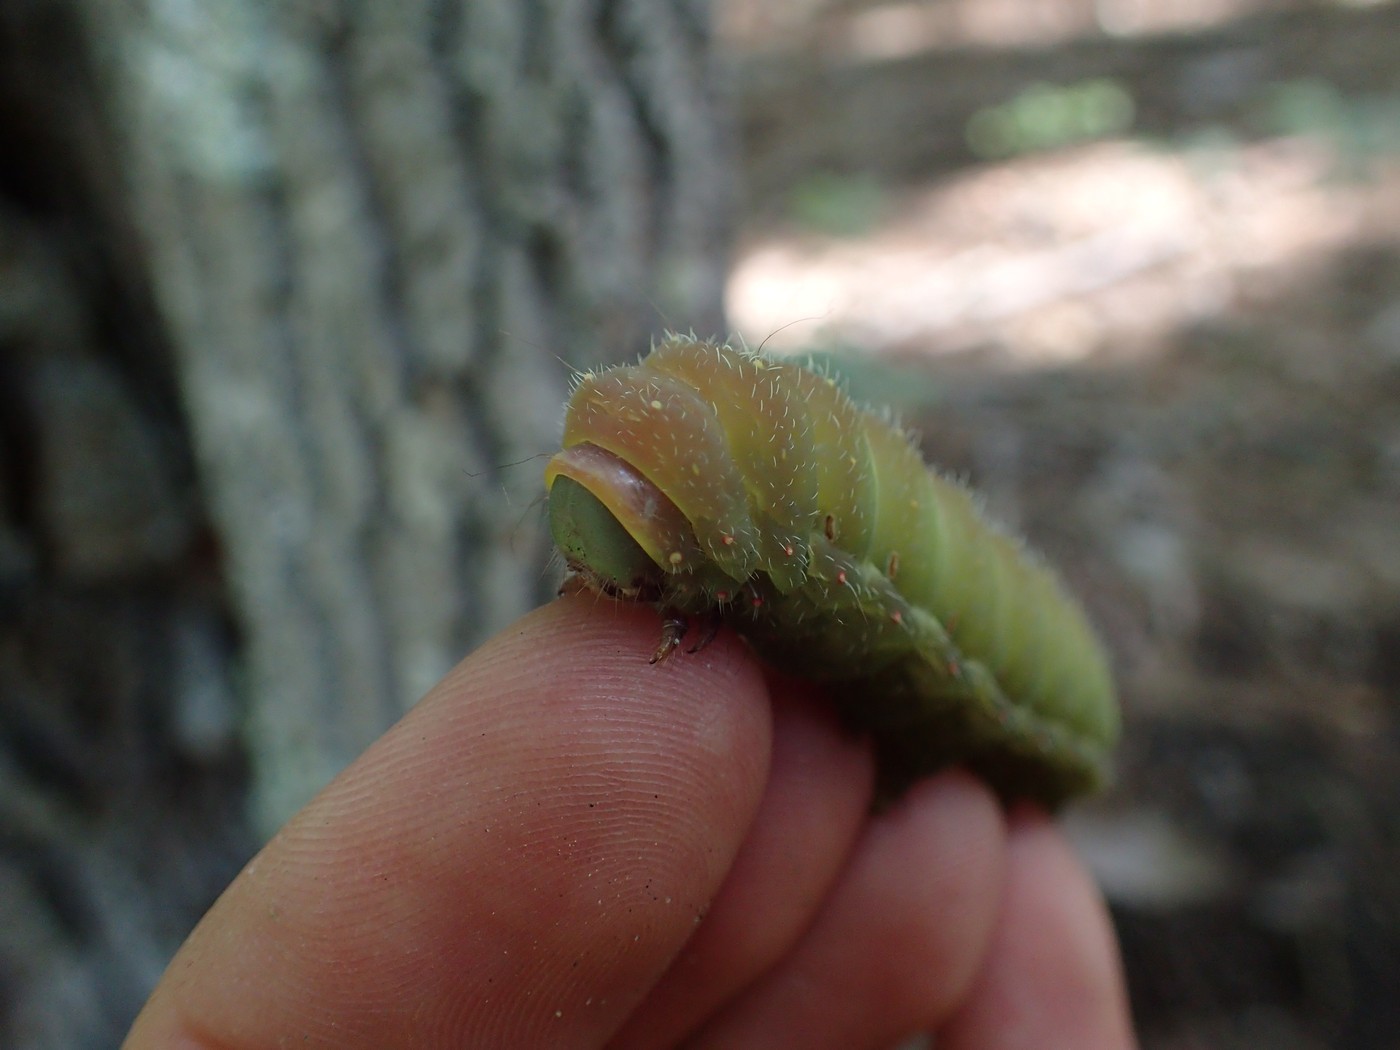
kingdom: Animalia
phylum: Arthropoda
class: Insecta
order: Lepidoptera
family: Saturniidae
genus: Actias
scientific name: Actias luna
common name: Luna moth
